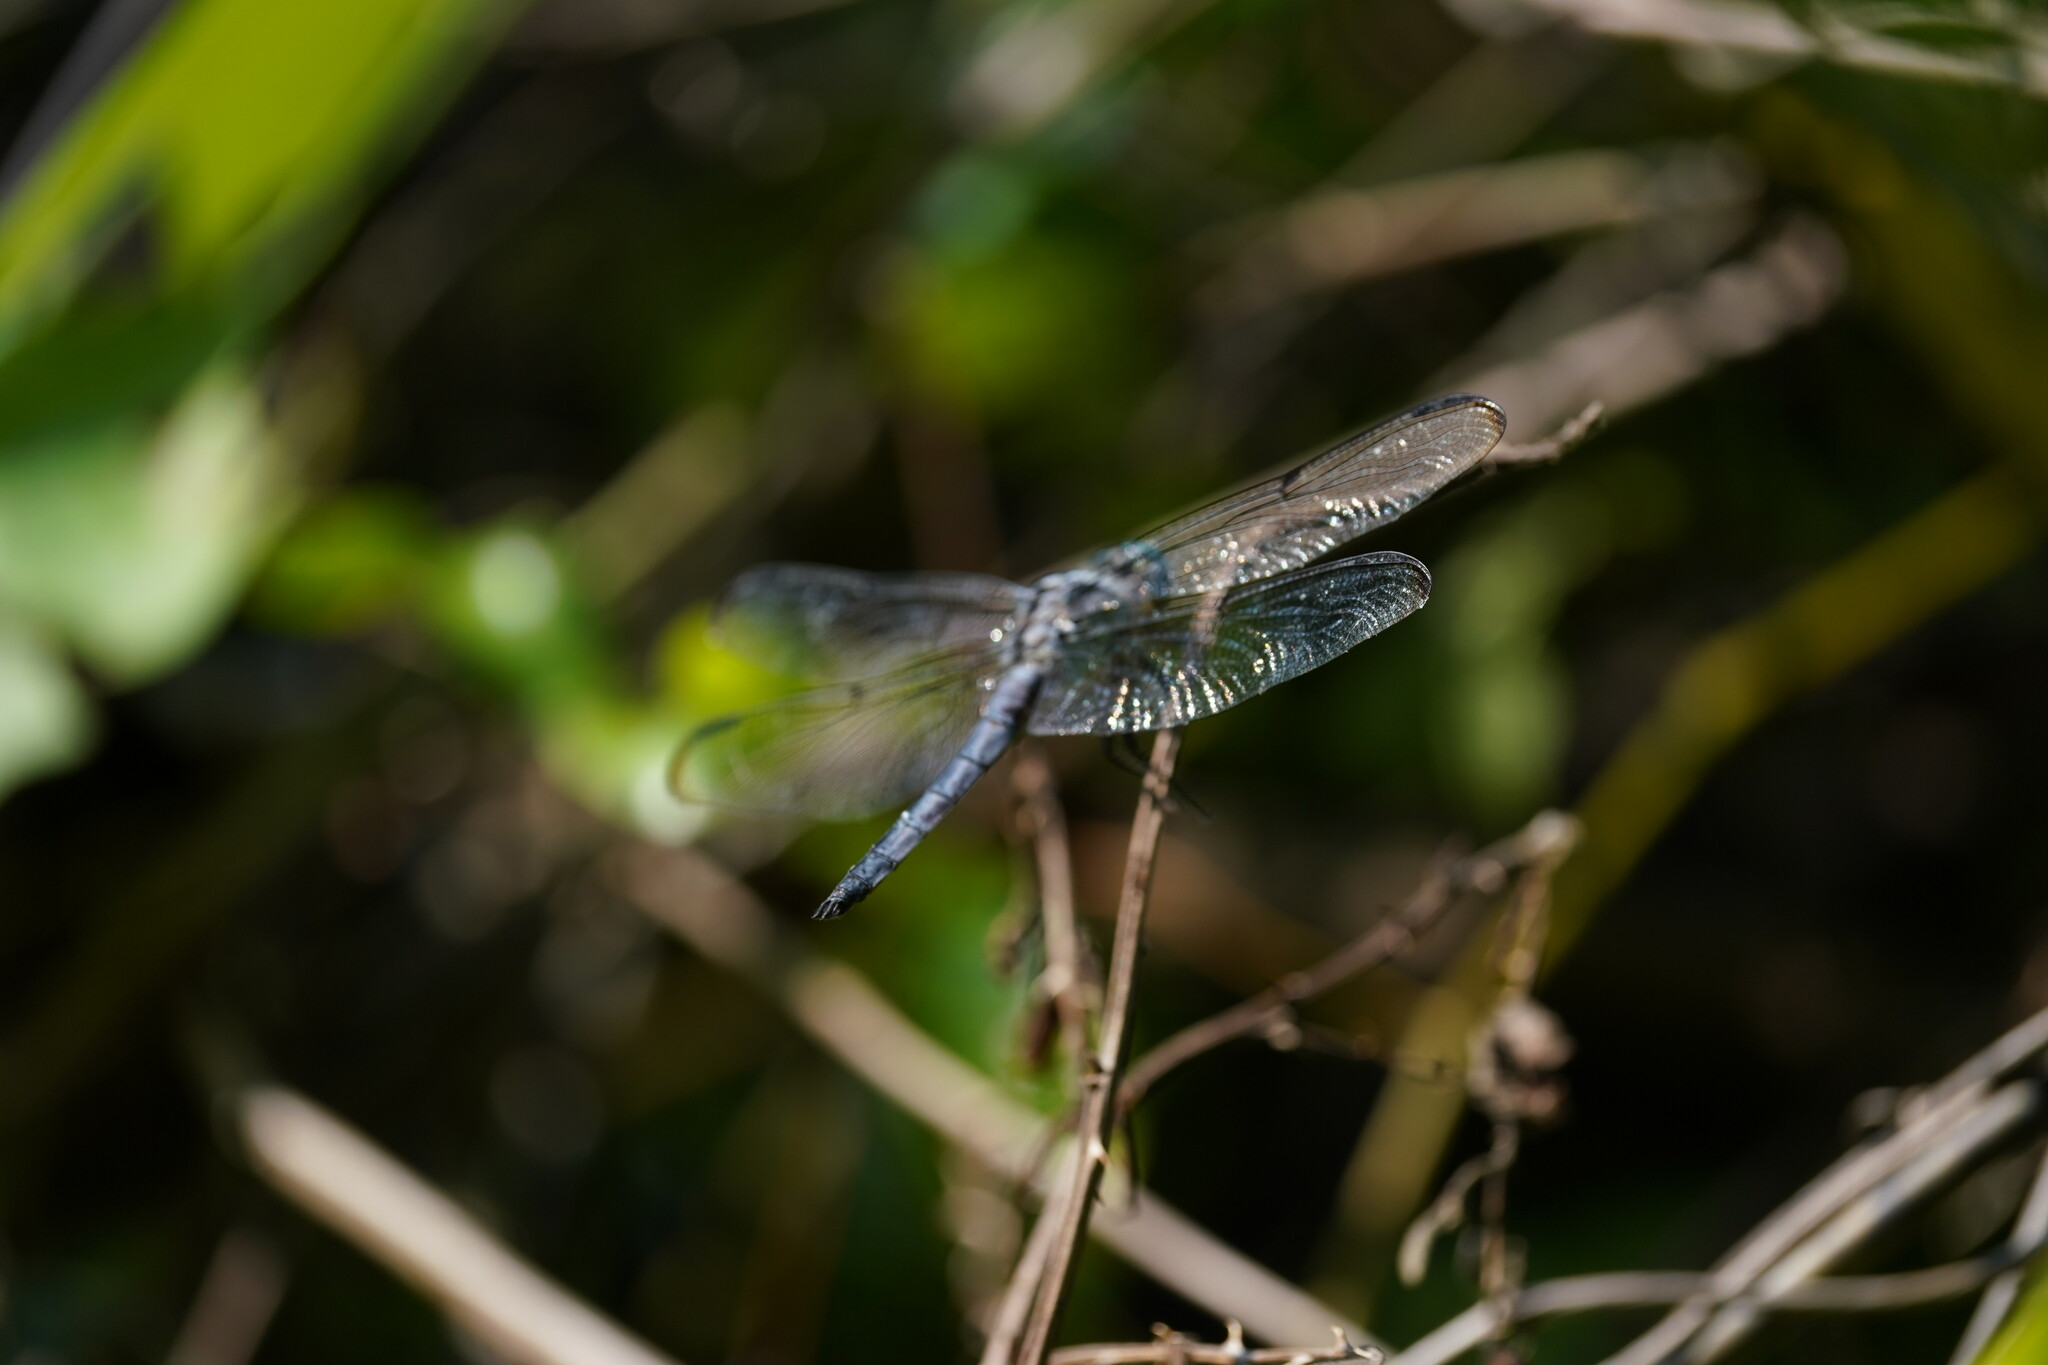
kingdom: Animalia
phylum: Arthropoda
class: Insecta
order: Odonata
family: Libellulidae
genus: Libellula
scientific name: Libellula vibrans
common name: Great blue skimmer
